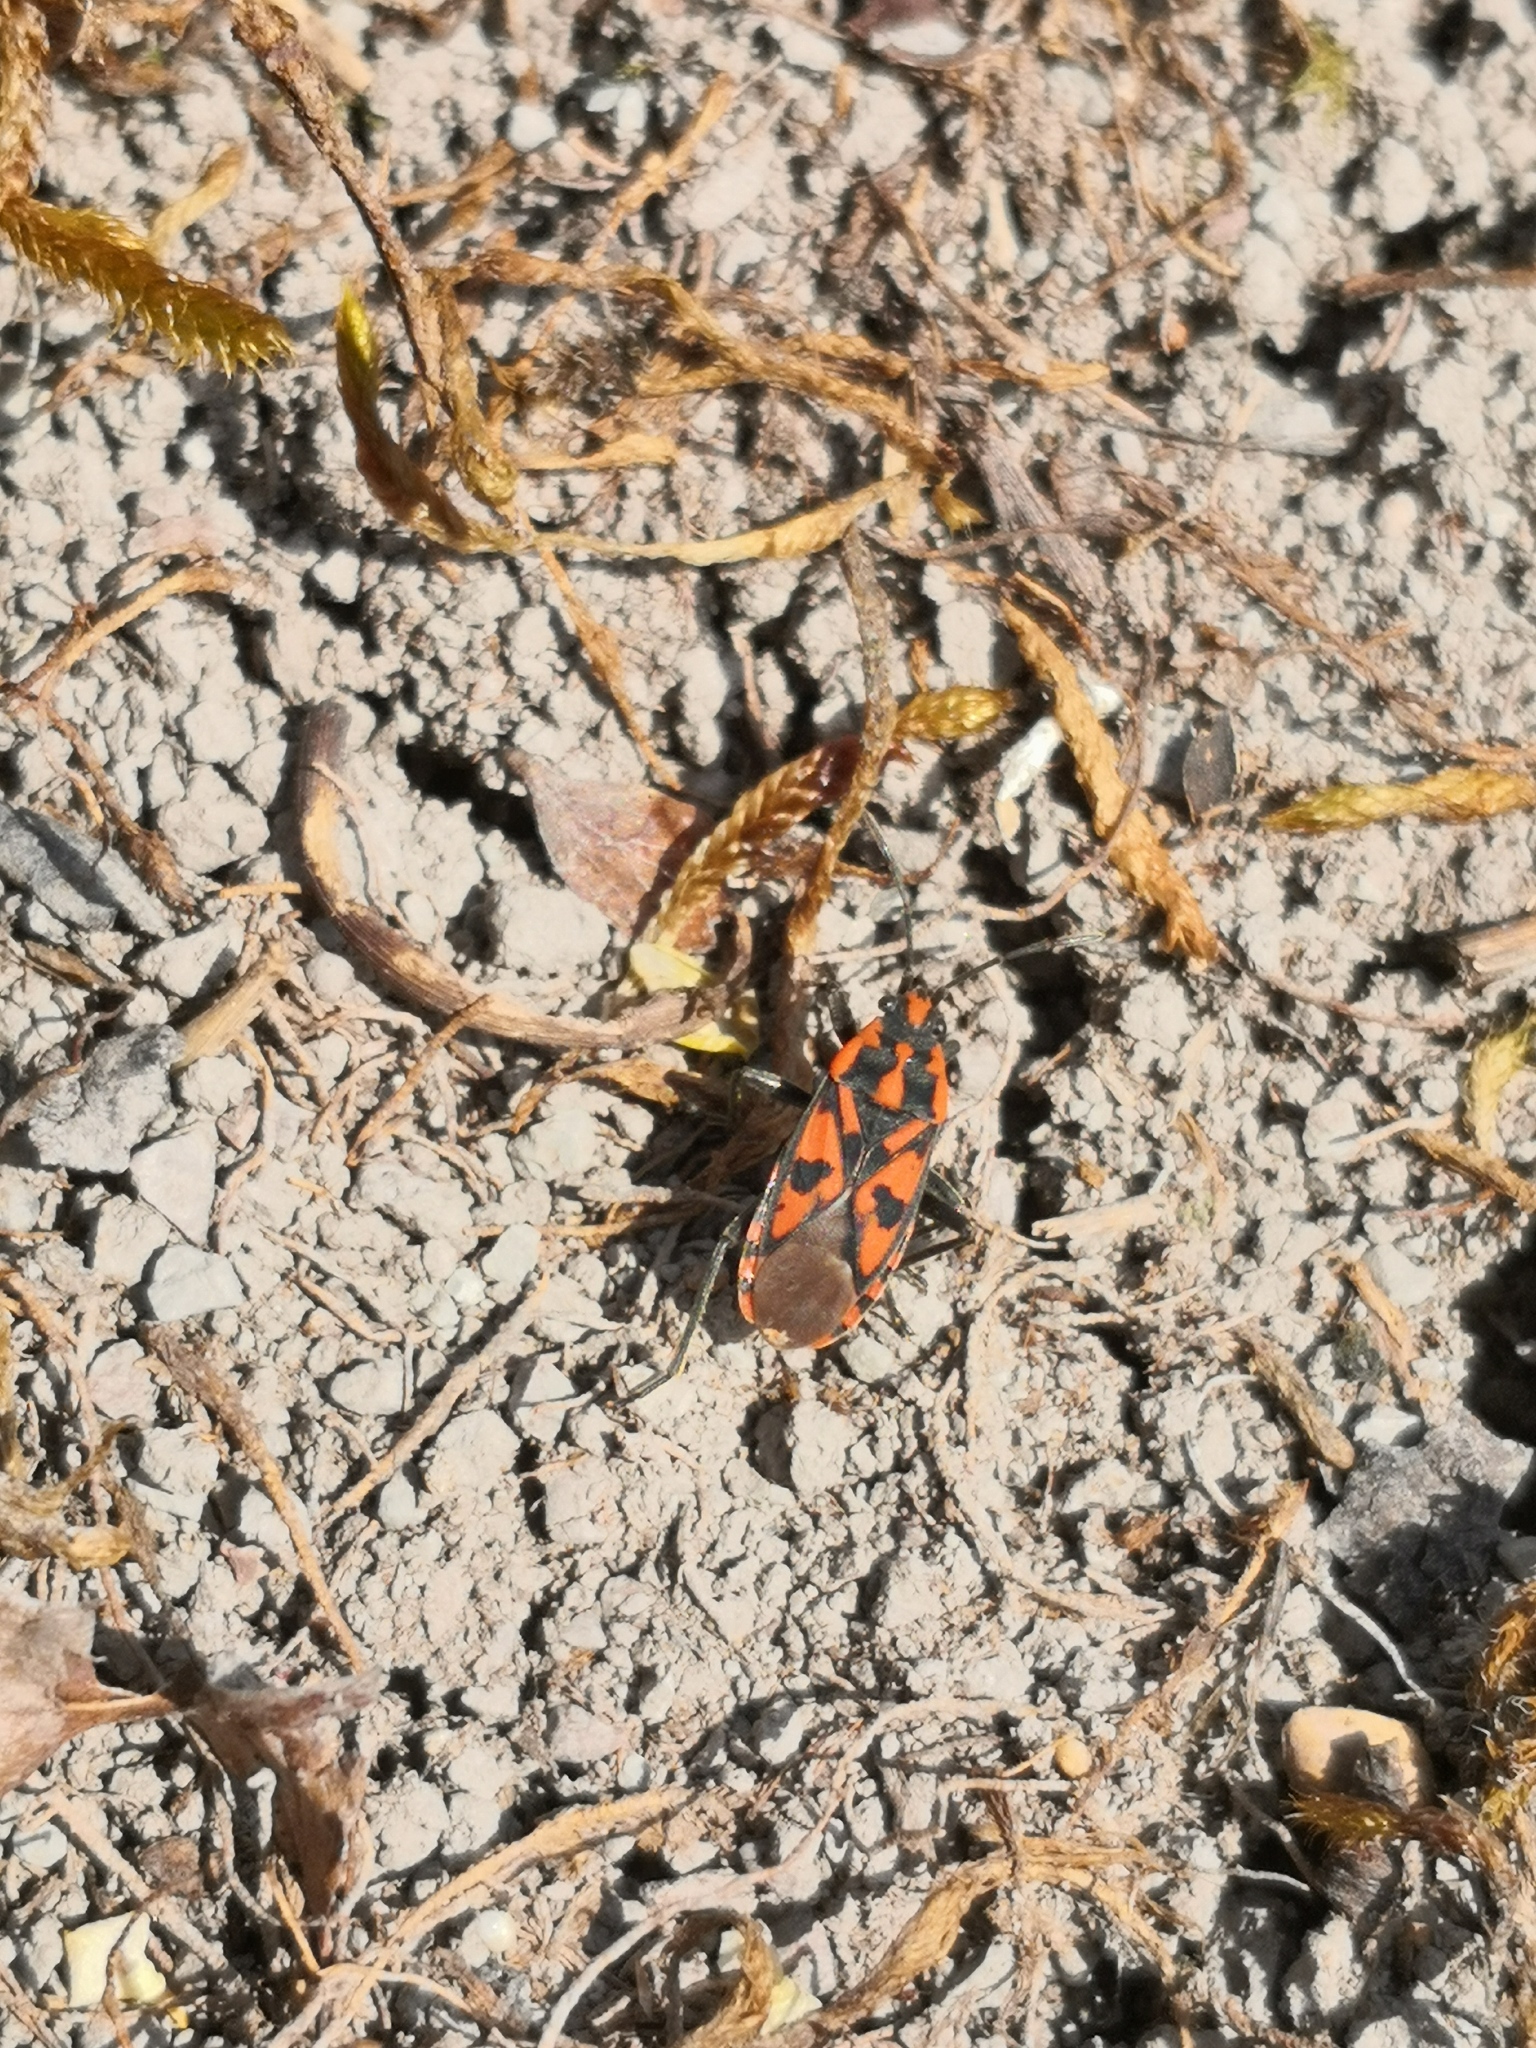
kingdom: Animalia
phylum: Arthropoda
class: Insecta
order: Hemiptera
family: Lygaeidae
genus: Spilostethus
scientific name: Spilostethus saxatilis
